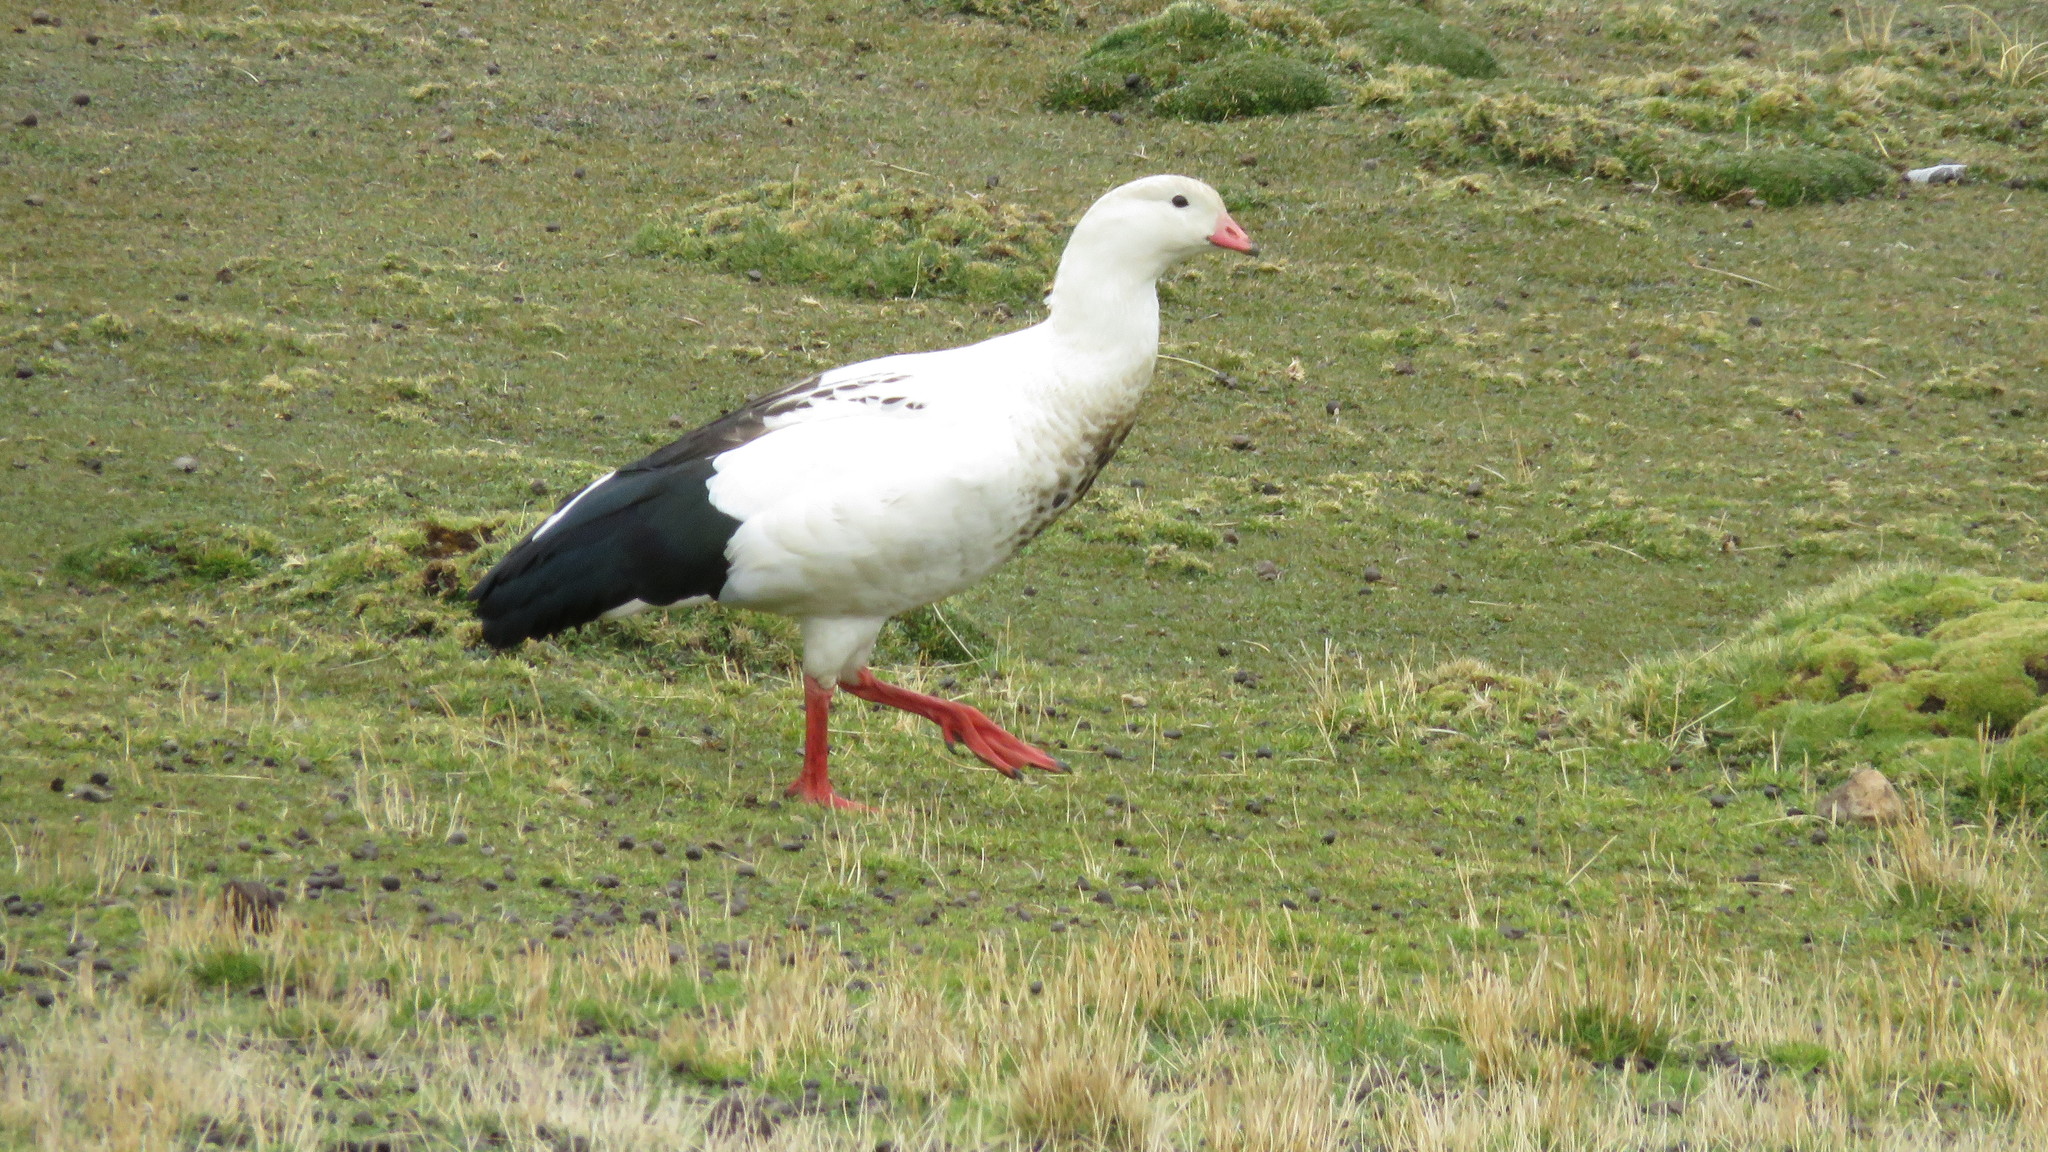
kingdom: Animalia
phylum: Chordata
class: Aves
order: Anseriformes
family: Anatidae
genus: Chloephaga
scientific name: Chloephaga melanoptera
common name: Andean goose
